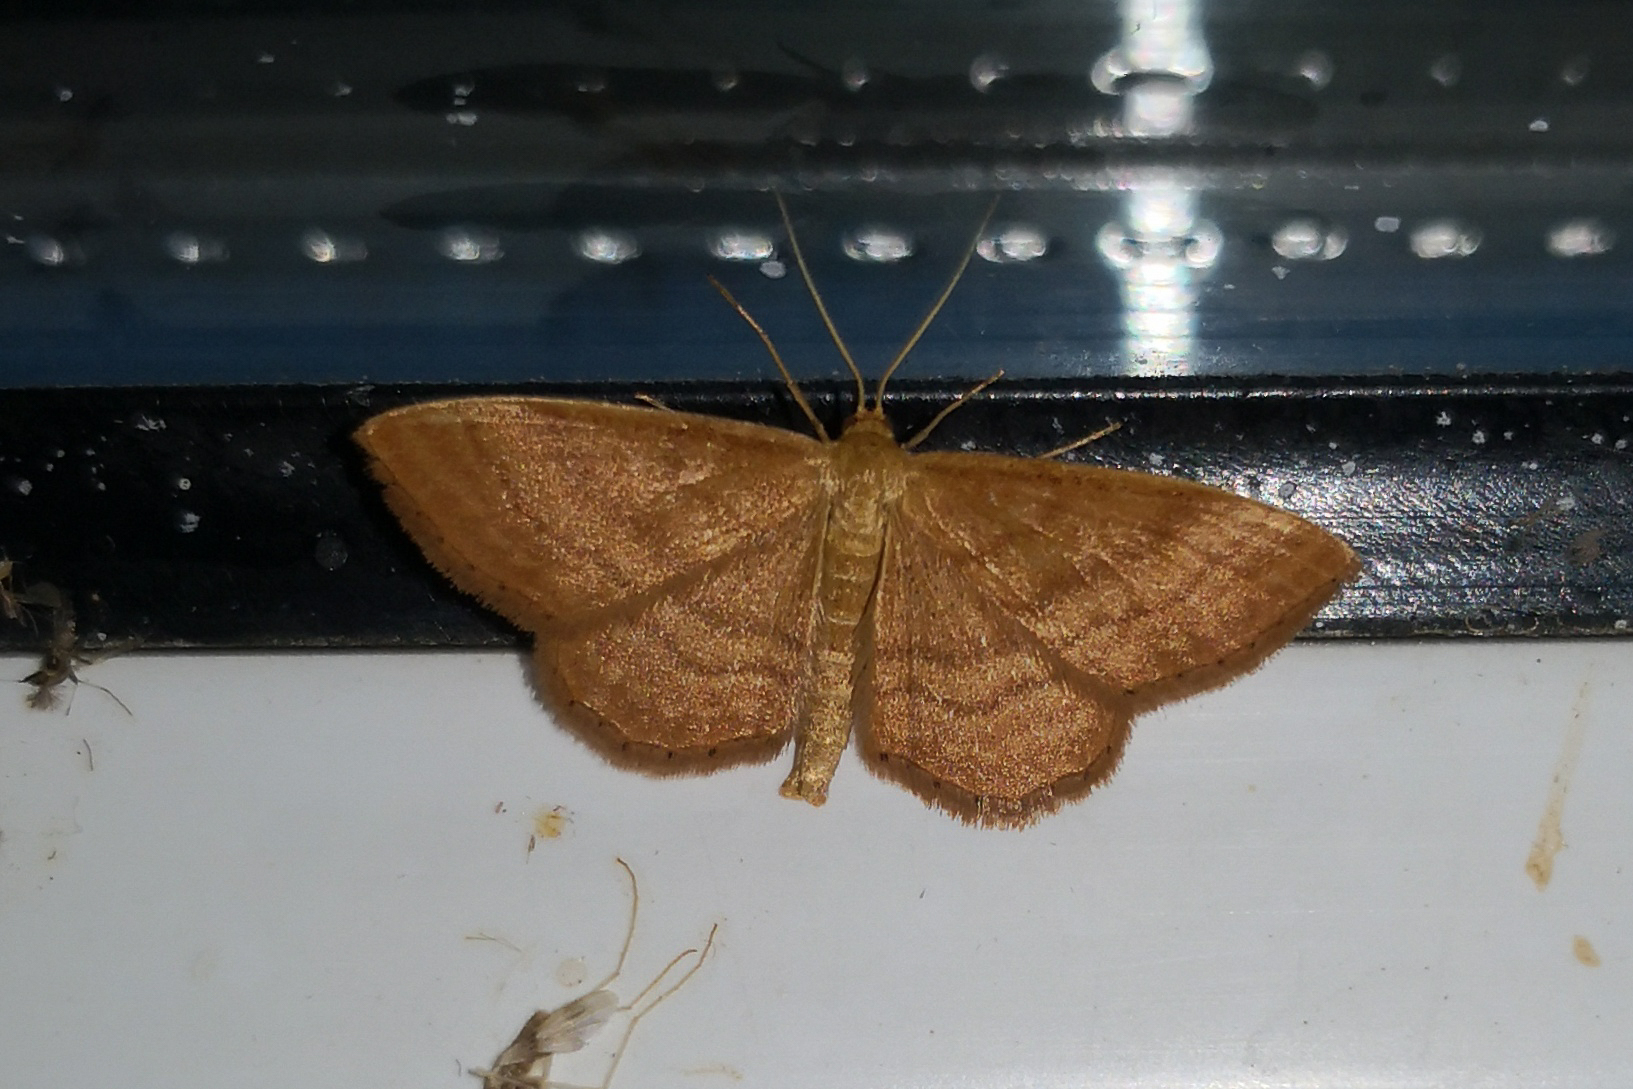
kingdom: Animalia
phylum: Arthropoda
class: Insecta
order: Lepidoptera
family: Geometridae
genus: Idaea
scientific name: Idaea ochrata
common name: Bright wave
